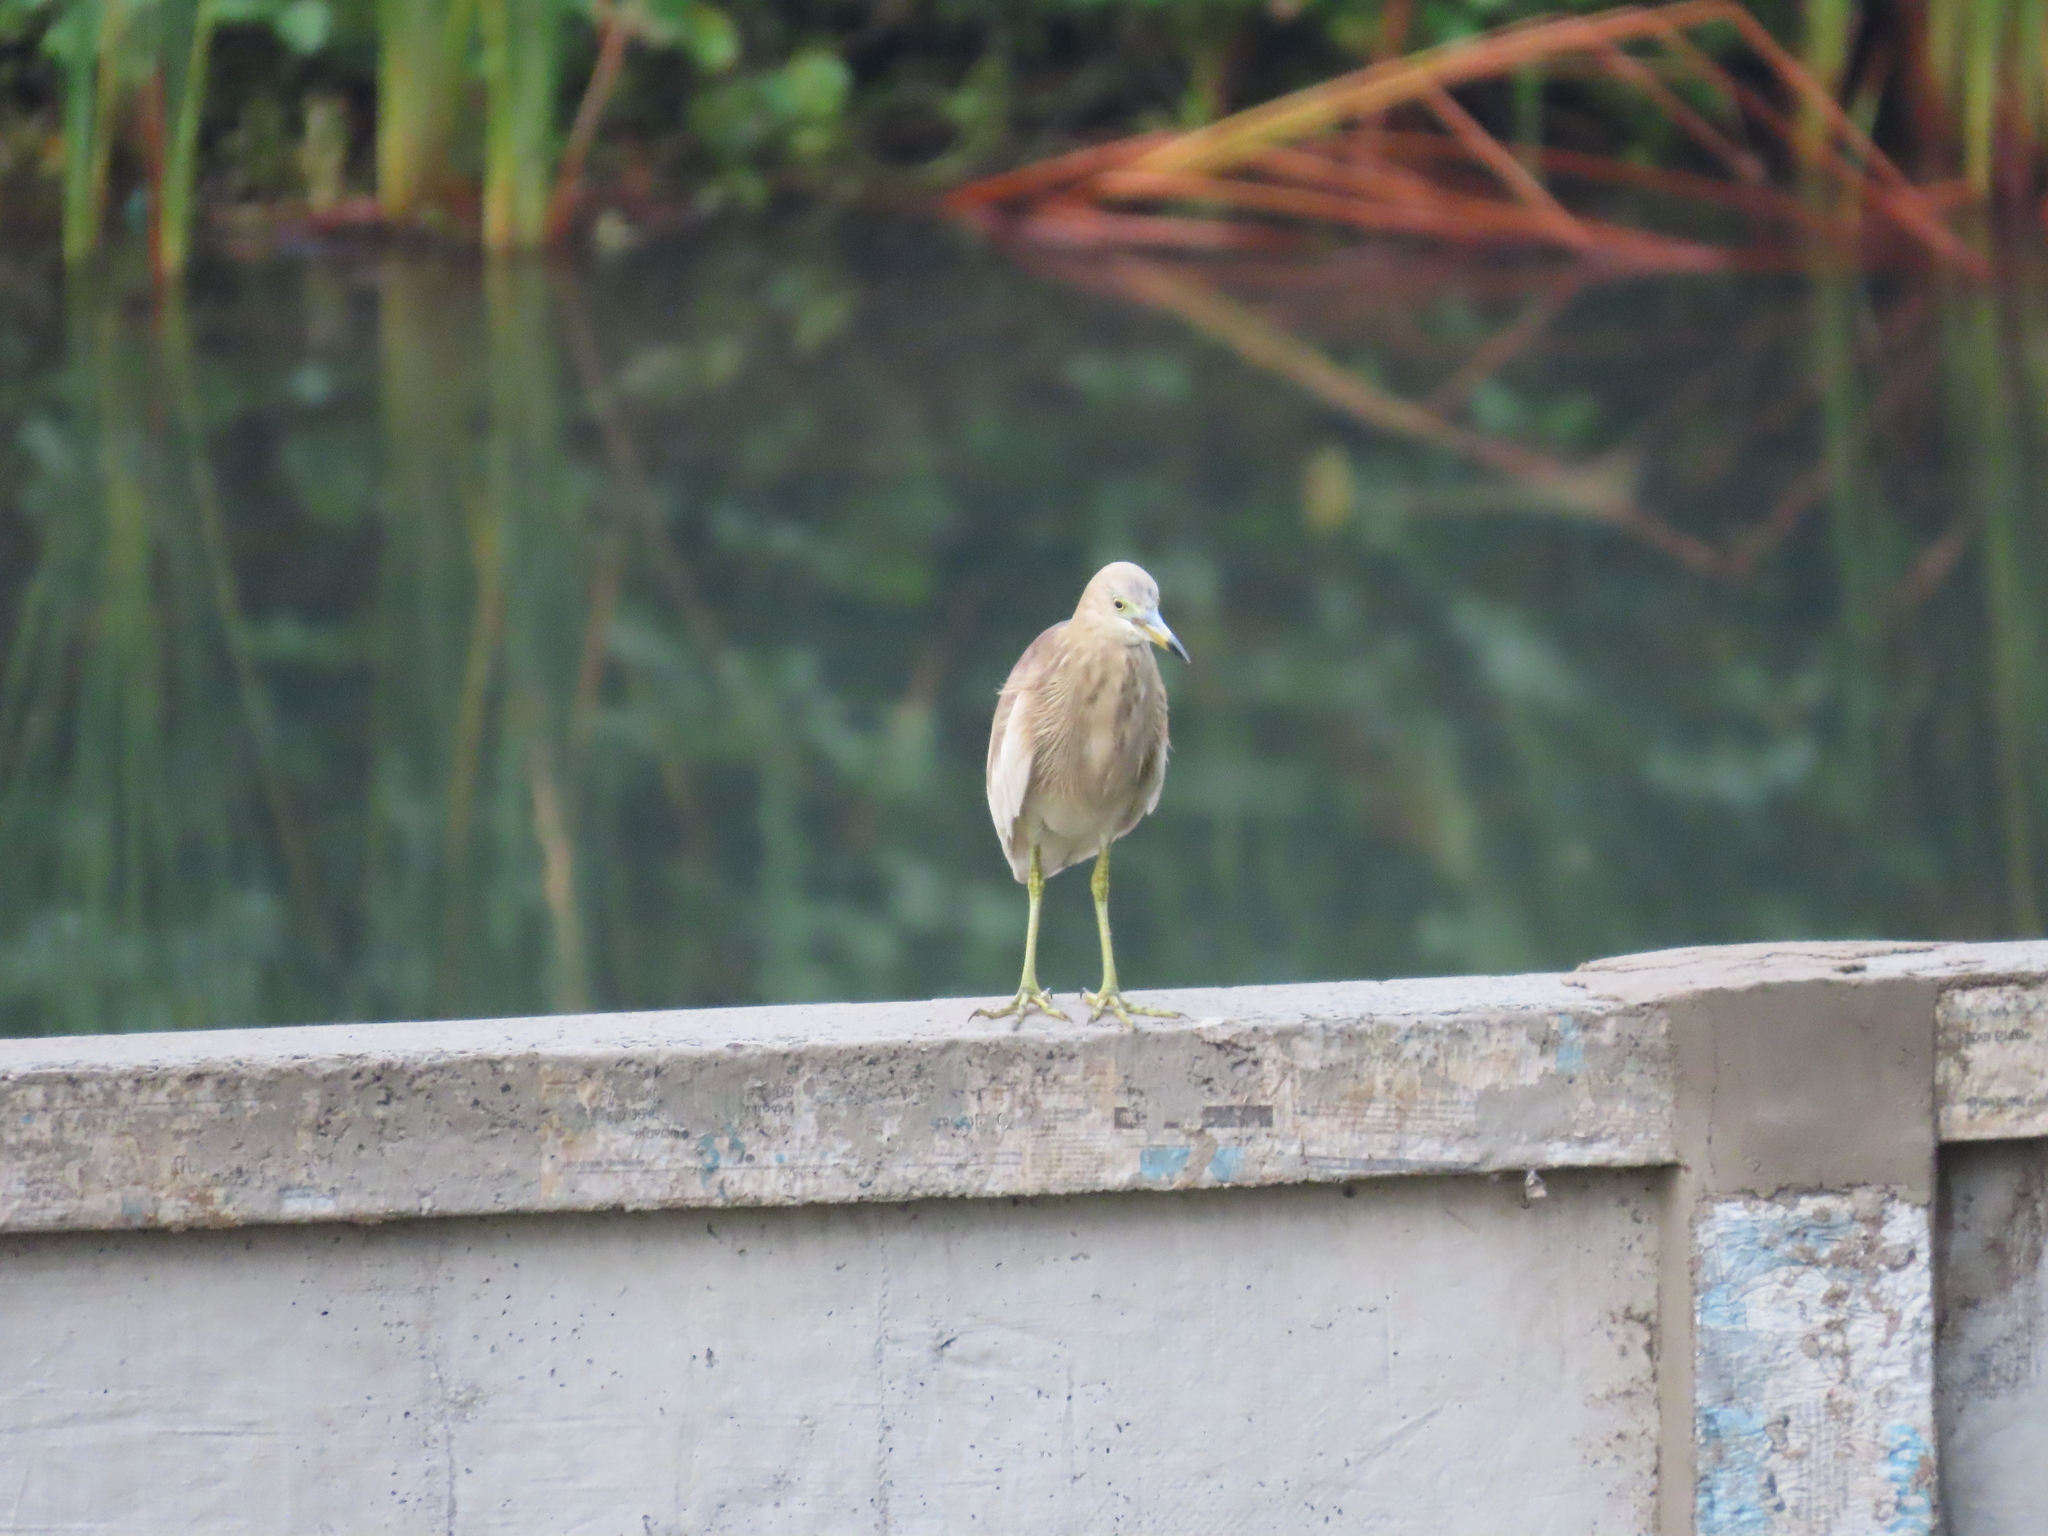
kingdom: Animalia
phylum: Chordata
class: Aves
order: Pelecaniformes
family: Ardeidae
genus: Ardeola
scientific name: Ardeola grayii
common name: Indian pond heron
